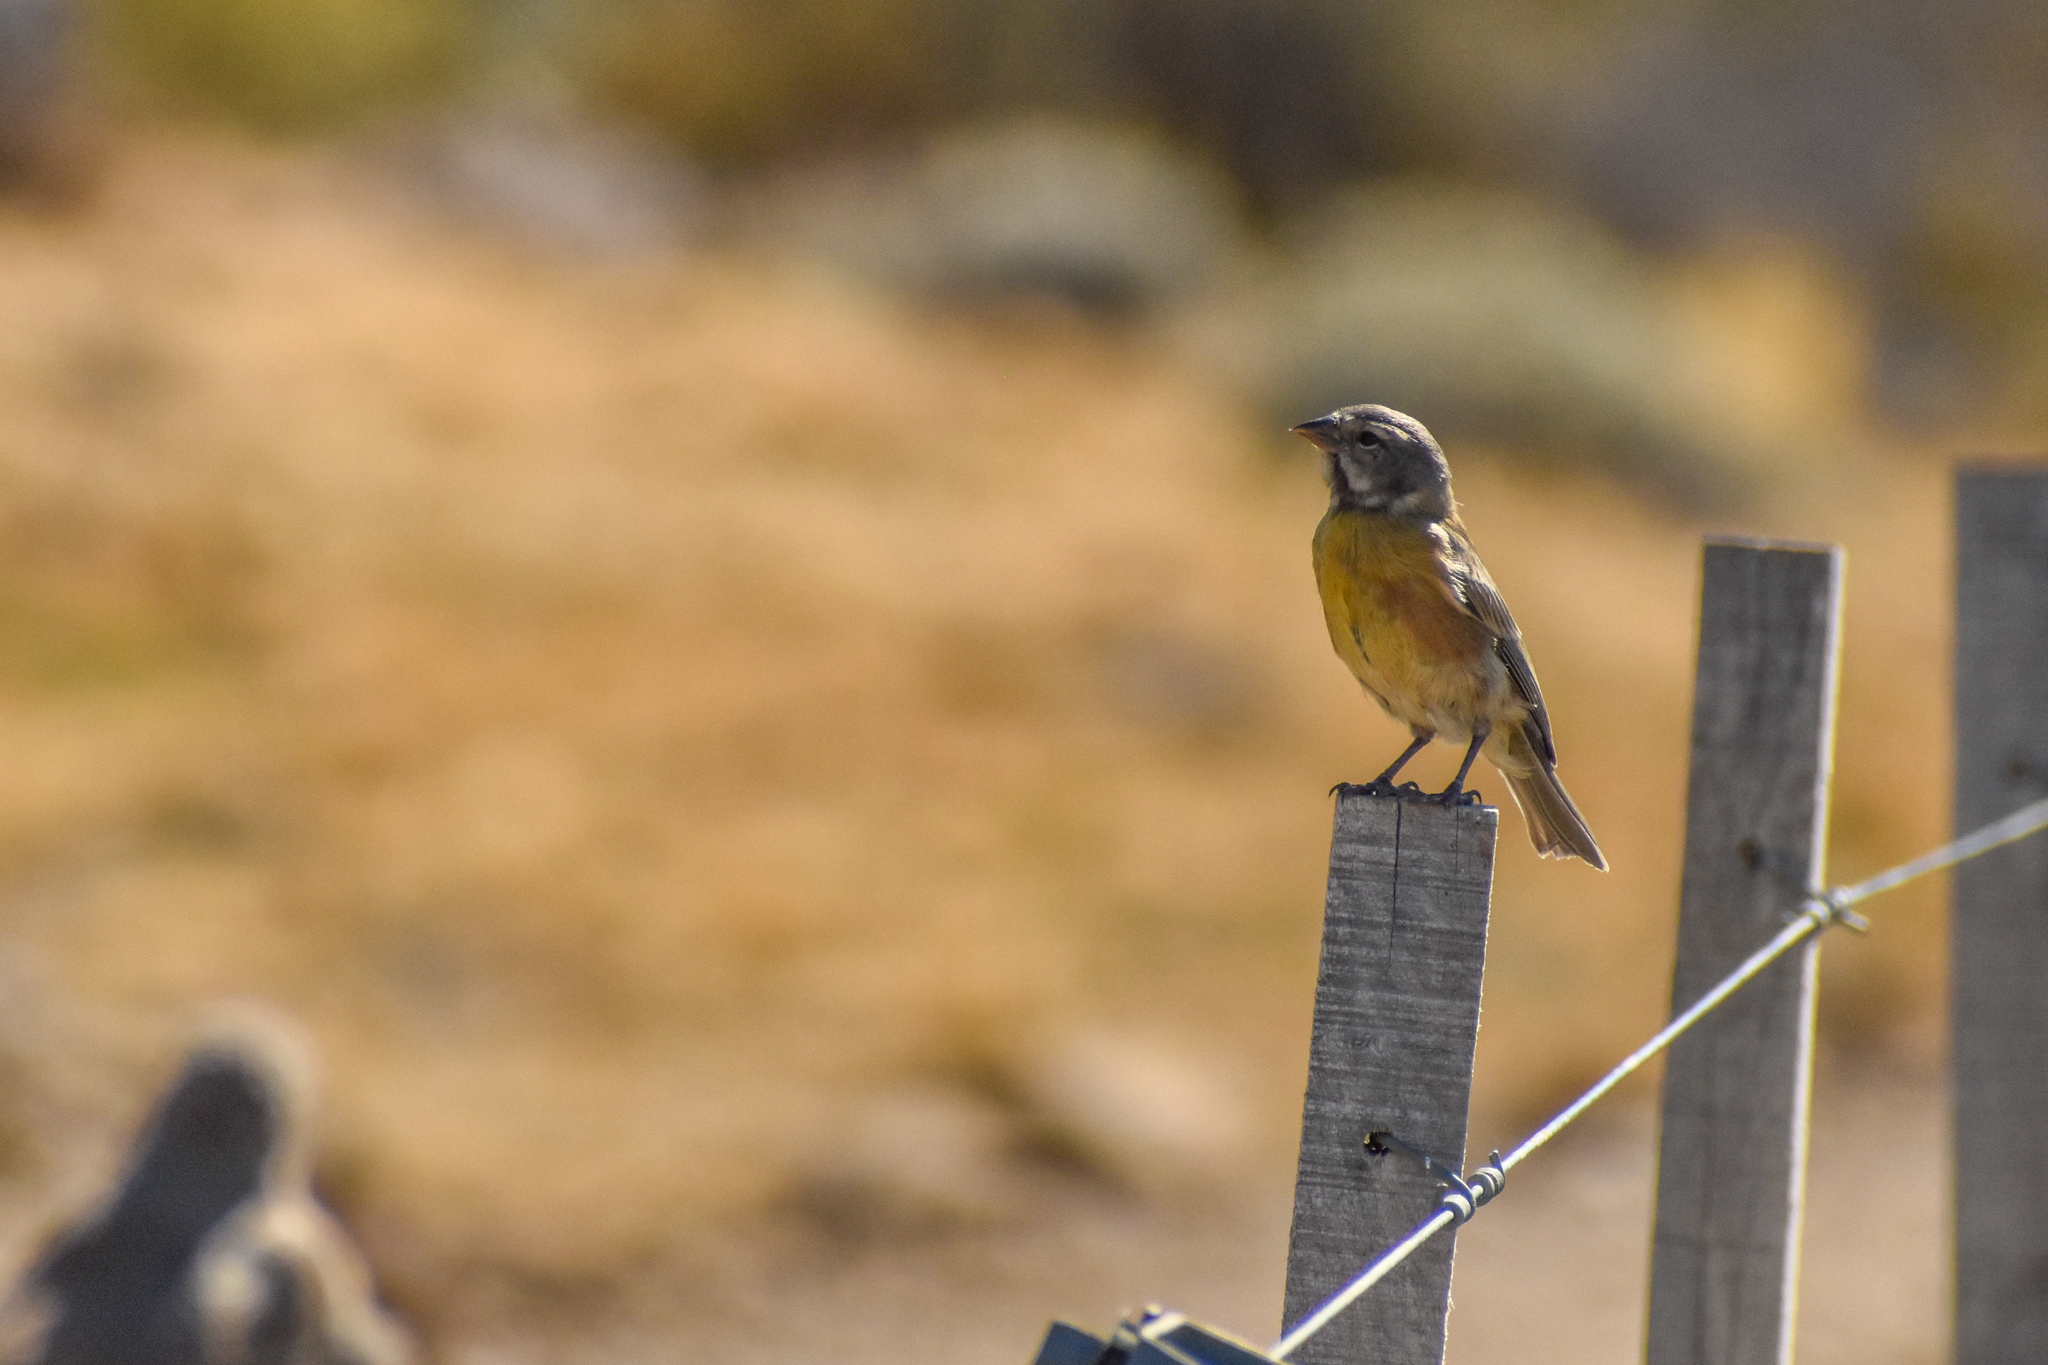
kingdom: Animalia
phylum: Chordata
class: Aves
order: Passeriformes
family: Thraupidae
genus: Phrygilus
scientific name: Phrygilus gayi
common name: Grey-hooded sierra finch
